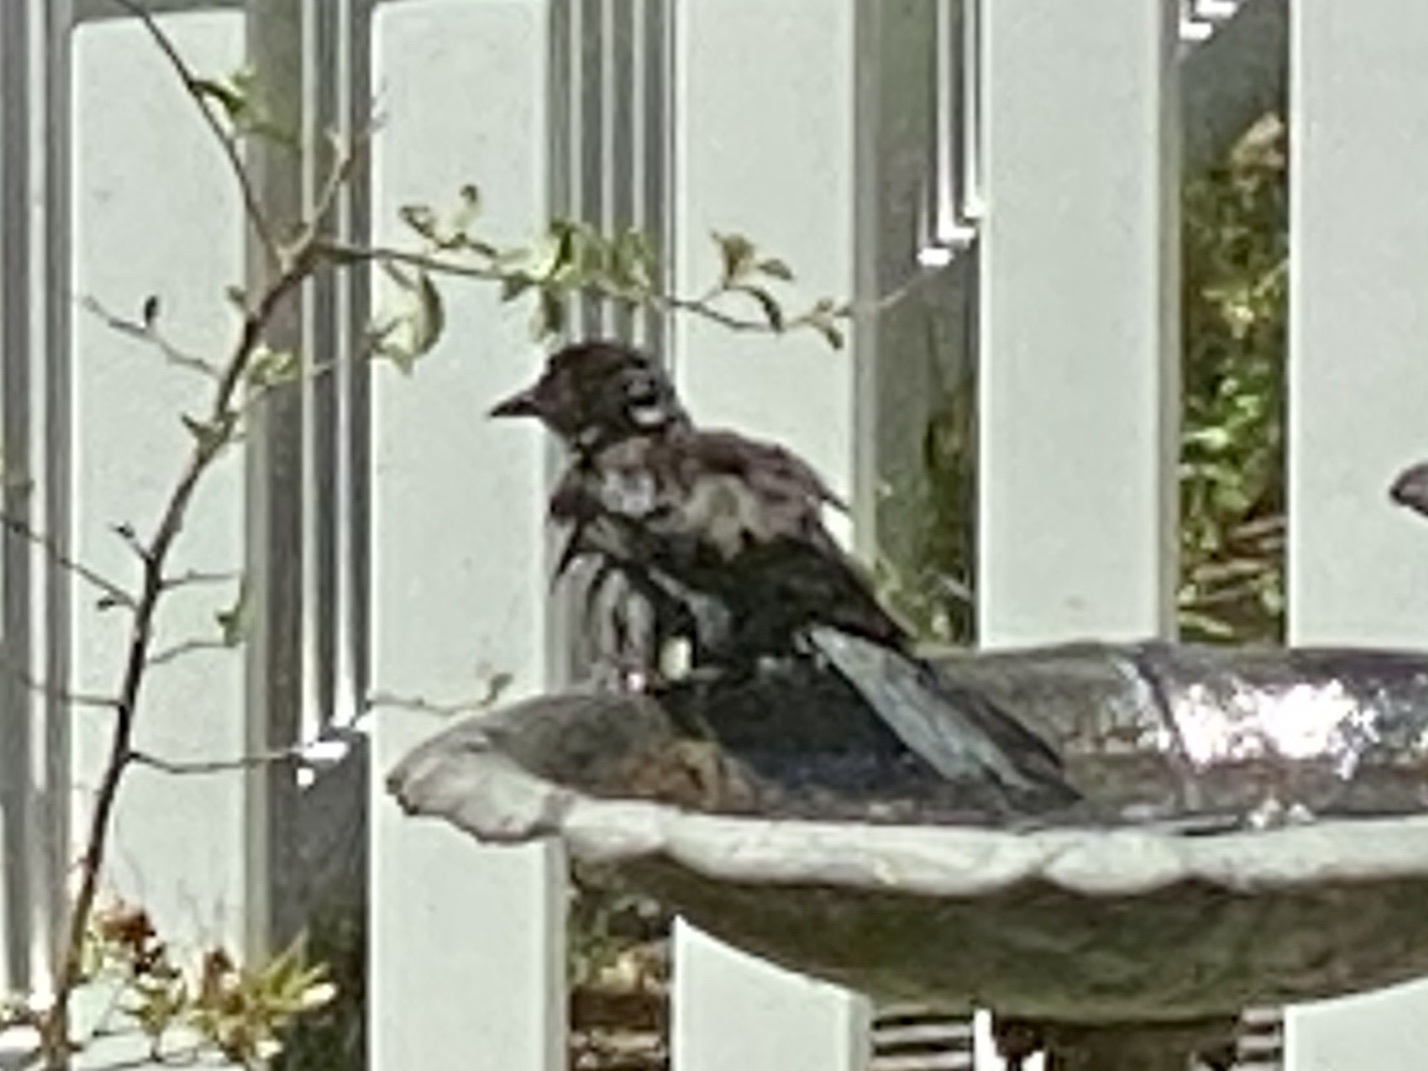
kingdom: Animalia
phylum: Chordata
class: Aves
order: Passeriformes
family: Icteridae
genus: Quiscalus
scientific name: Quiscalus quiscula
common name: Common grackle
